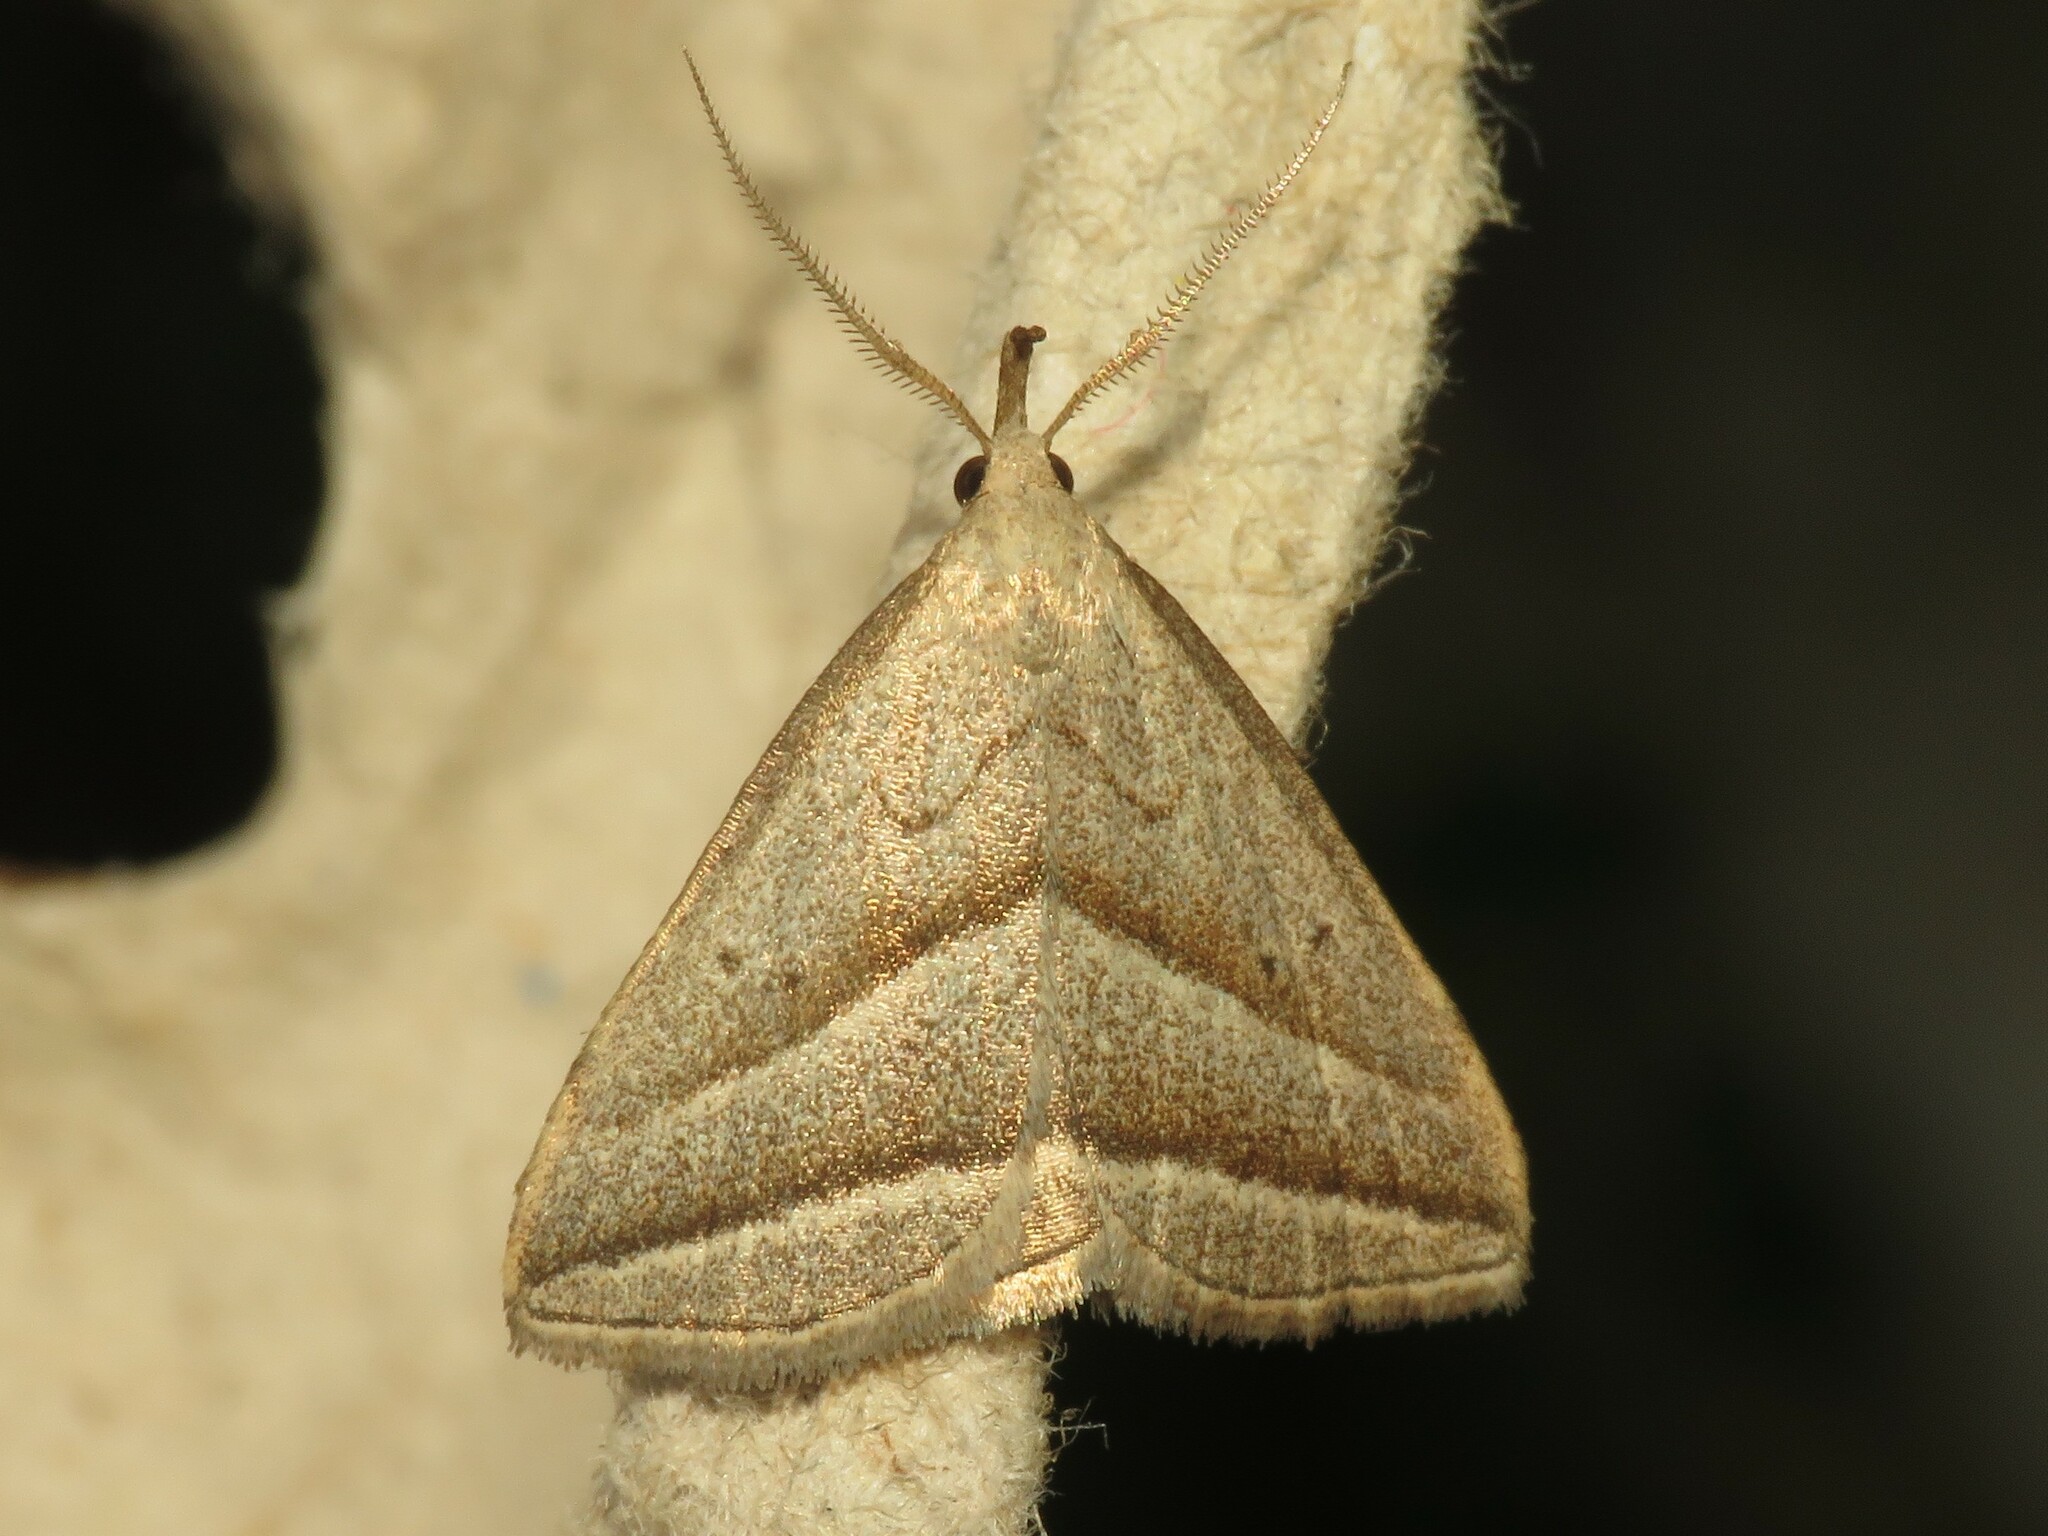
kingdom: Animalia
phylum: Arthropoda
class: Insecta
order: Lepidoptera
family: Erebidae
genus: Macrochilo
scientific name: Macrochilo absorptalis
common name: Slant-lined owlet
